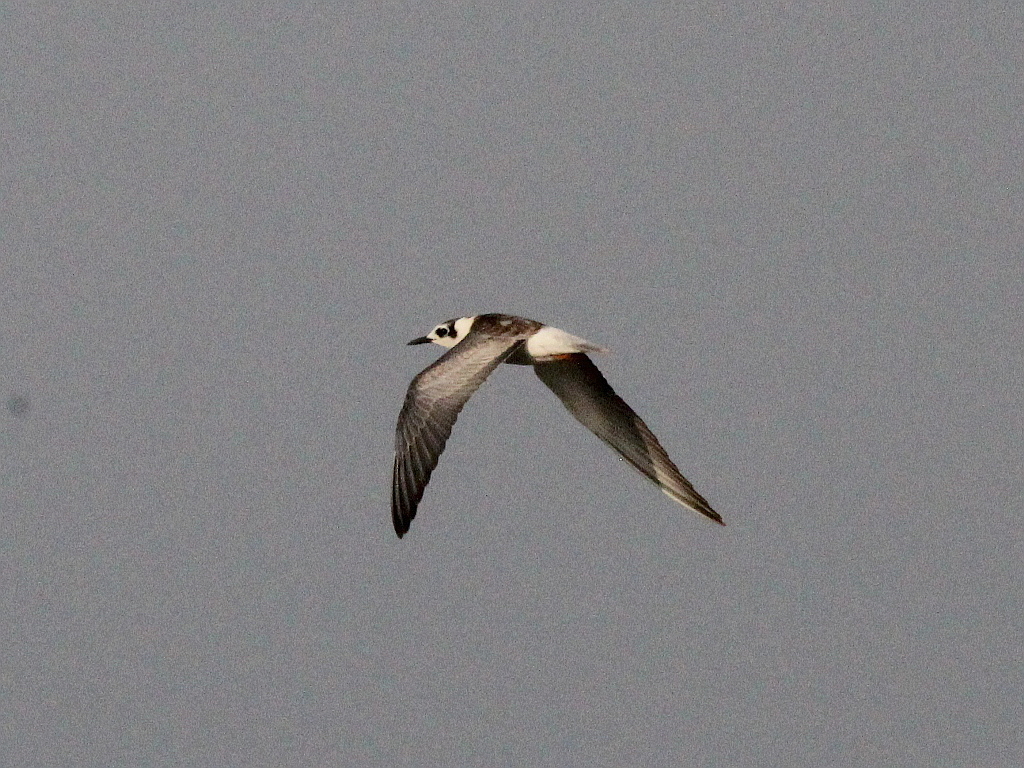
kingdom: Animalia
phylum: Chordata
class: Aves
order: Charadriiformes
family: Laridae
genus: Chlidonias
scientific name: Chlidonias leucopterus
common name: White-winged tern
